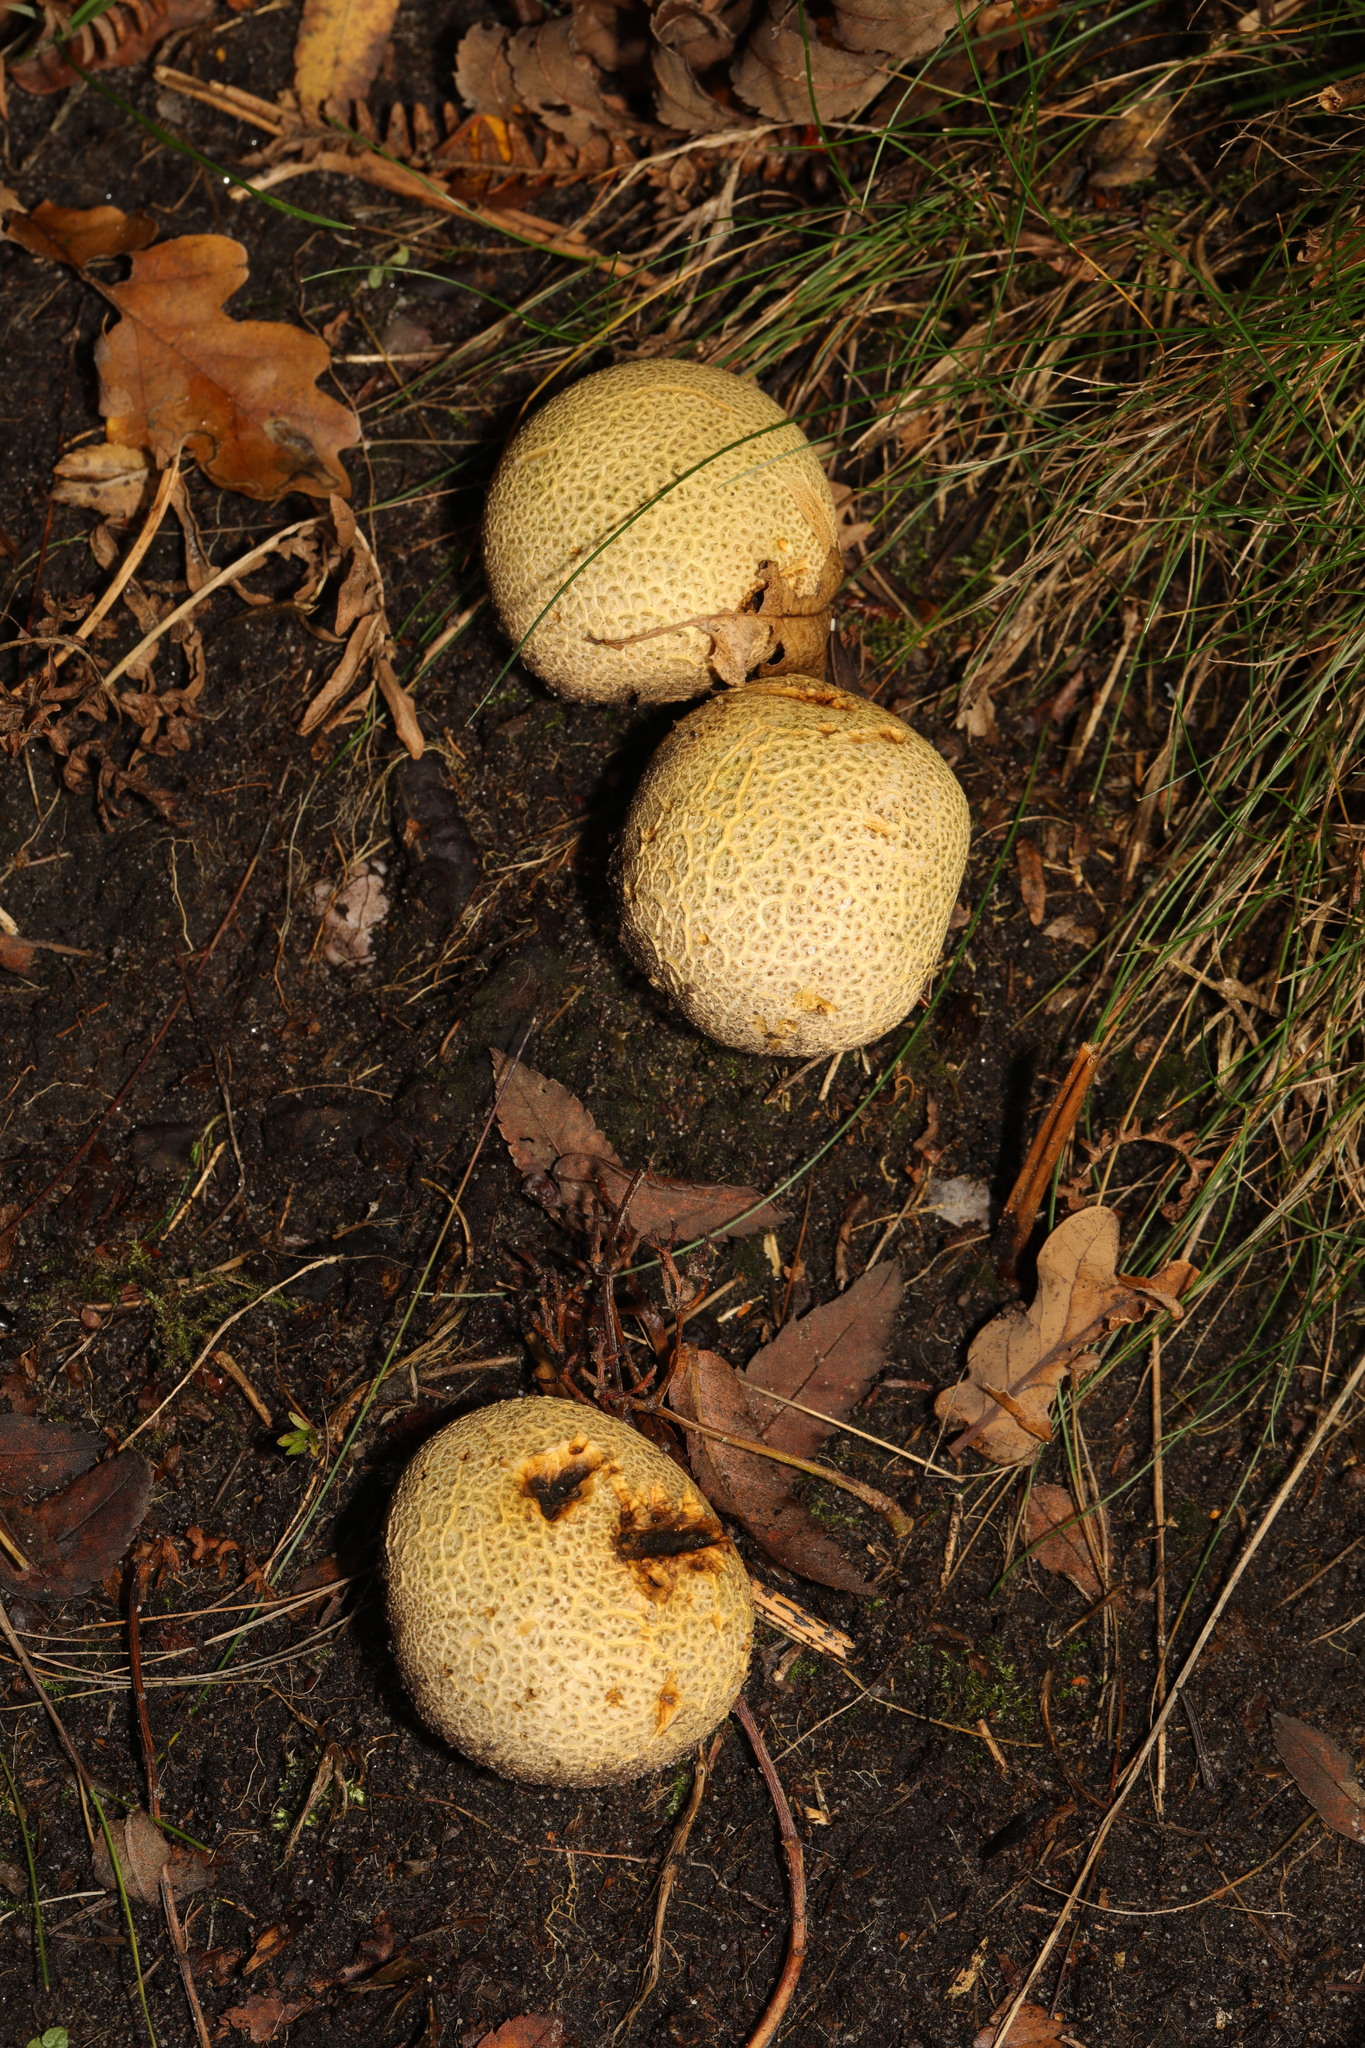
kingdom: Fungi
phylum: Basidiomycota
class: Agaricomycetes
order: Boletales
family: Sclerodermataceae
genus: Scleroderma
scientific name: Scleroderma citrinum
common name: Common earthball
